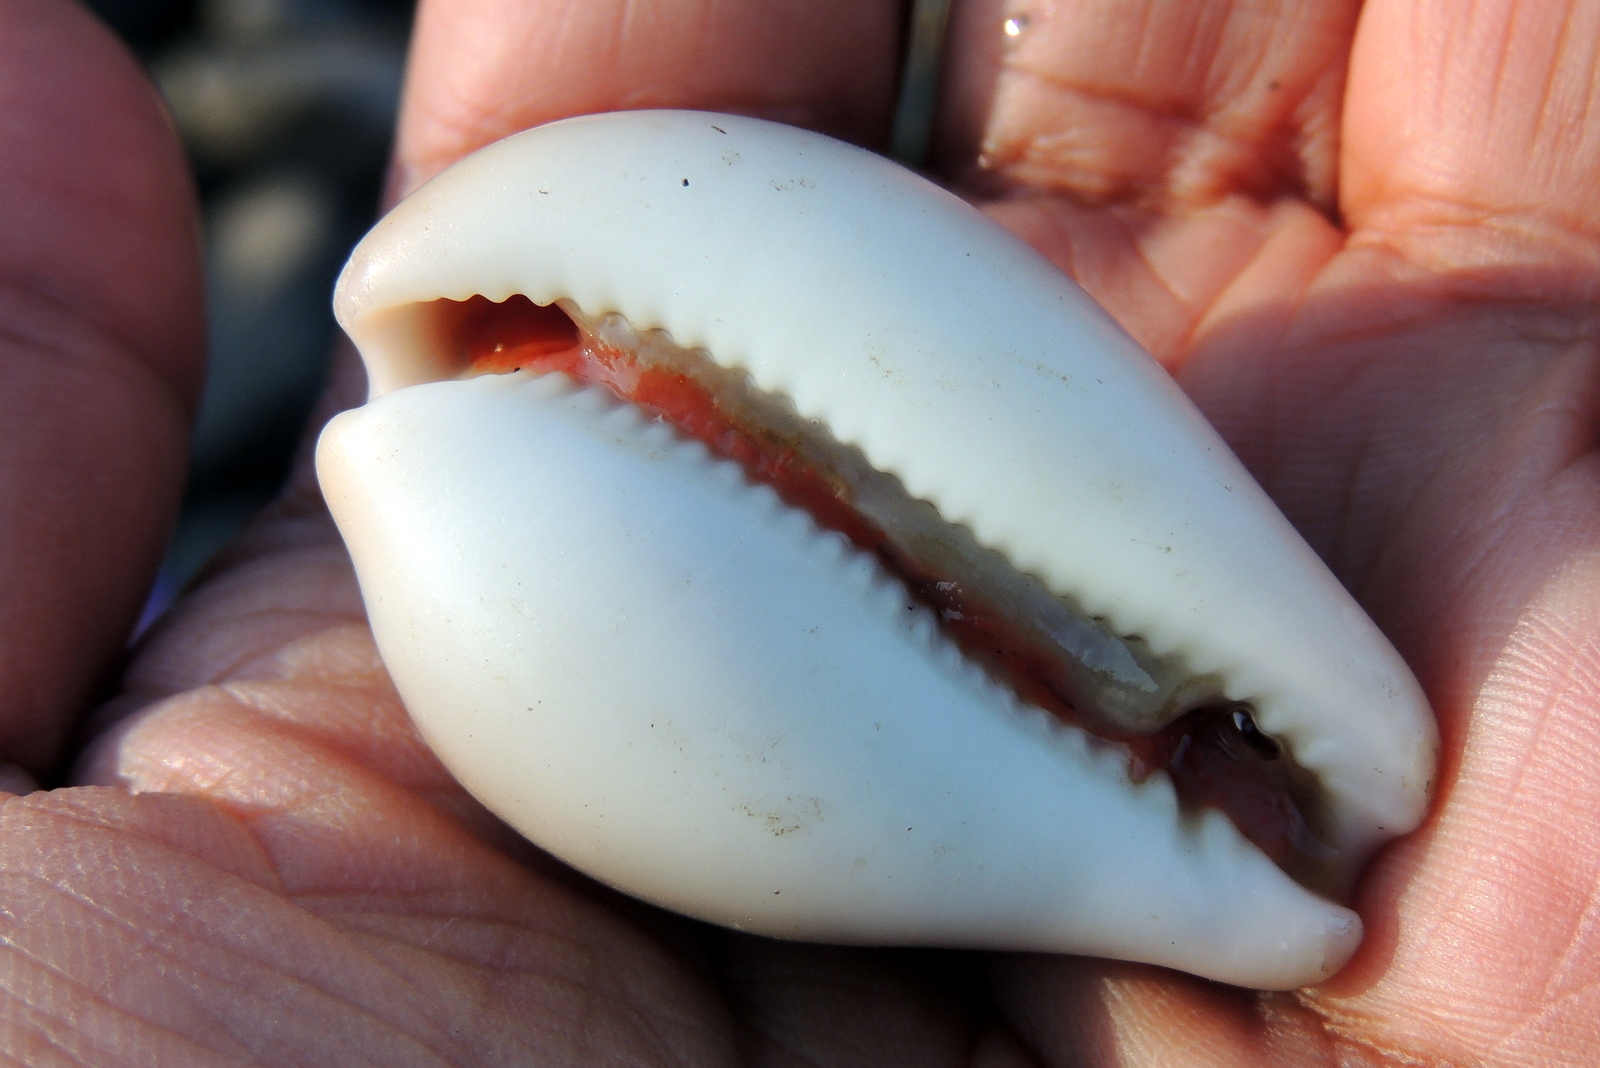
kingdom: Animalia
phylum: Mollusca
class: Gastropoda
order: Littorinimorpha
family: Cypraeidae
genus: Neobernaya
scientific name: Neobernaya spadicea
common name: Chestnut cowrie
